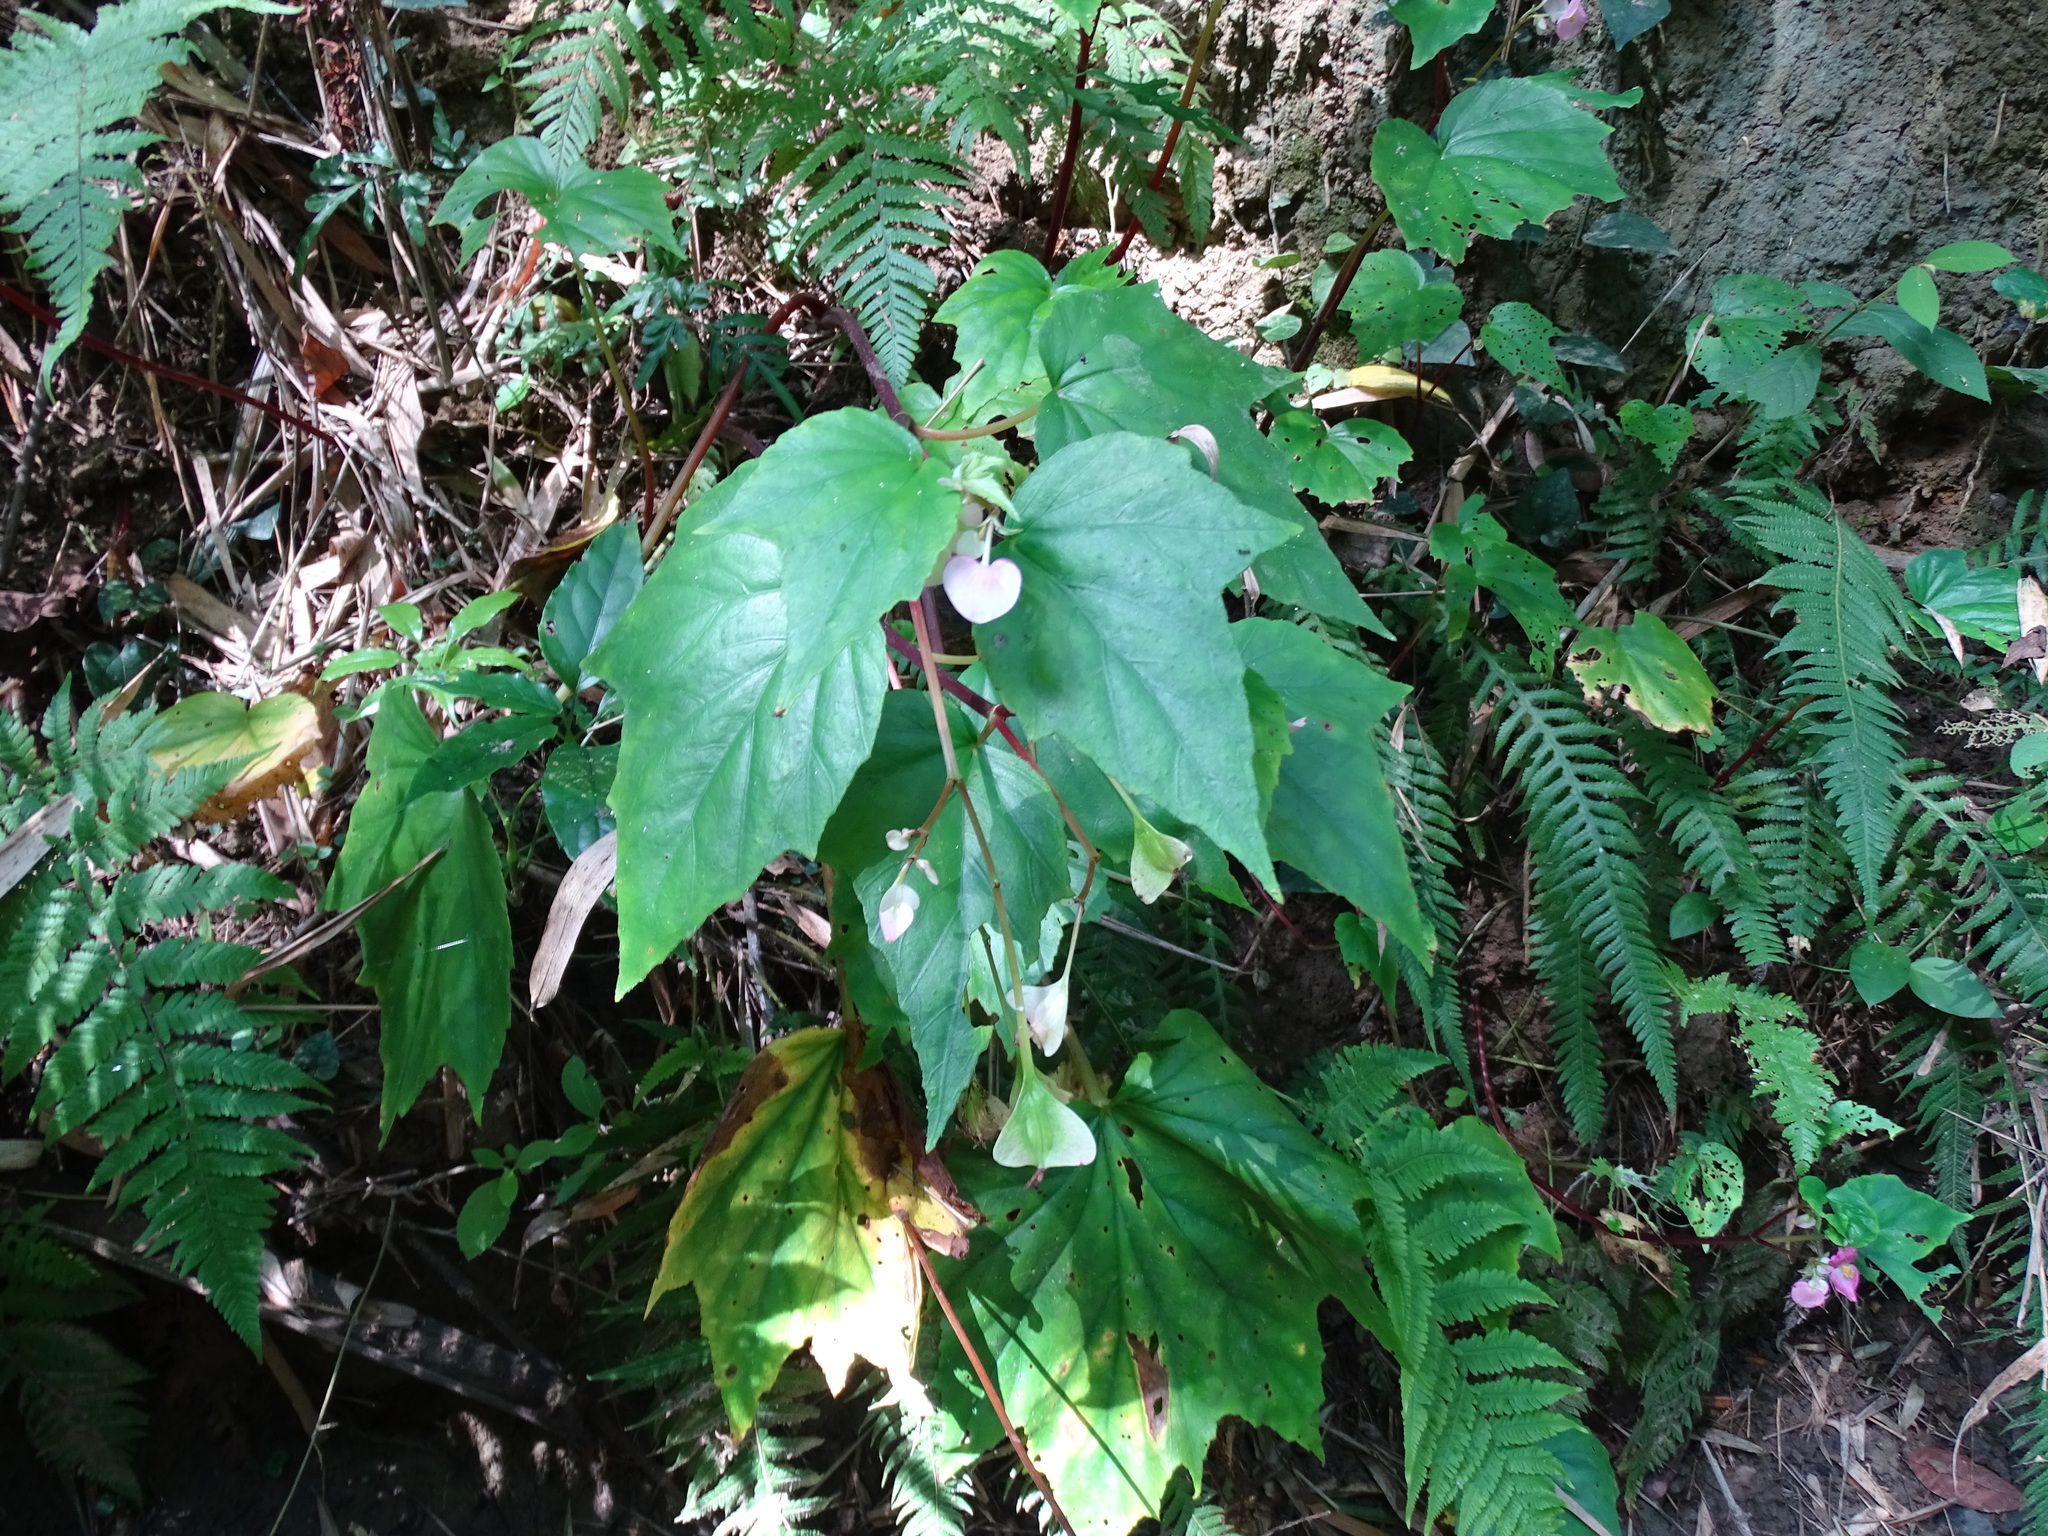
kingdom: Plantae
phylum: Tracheophyta
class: Magnoliopsida
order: Cucurbitales
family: Begoniaceae
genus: Begonia
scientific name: Begonia ravenii
